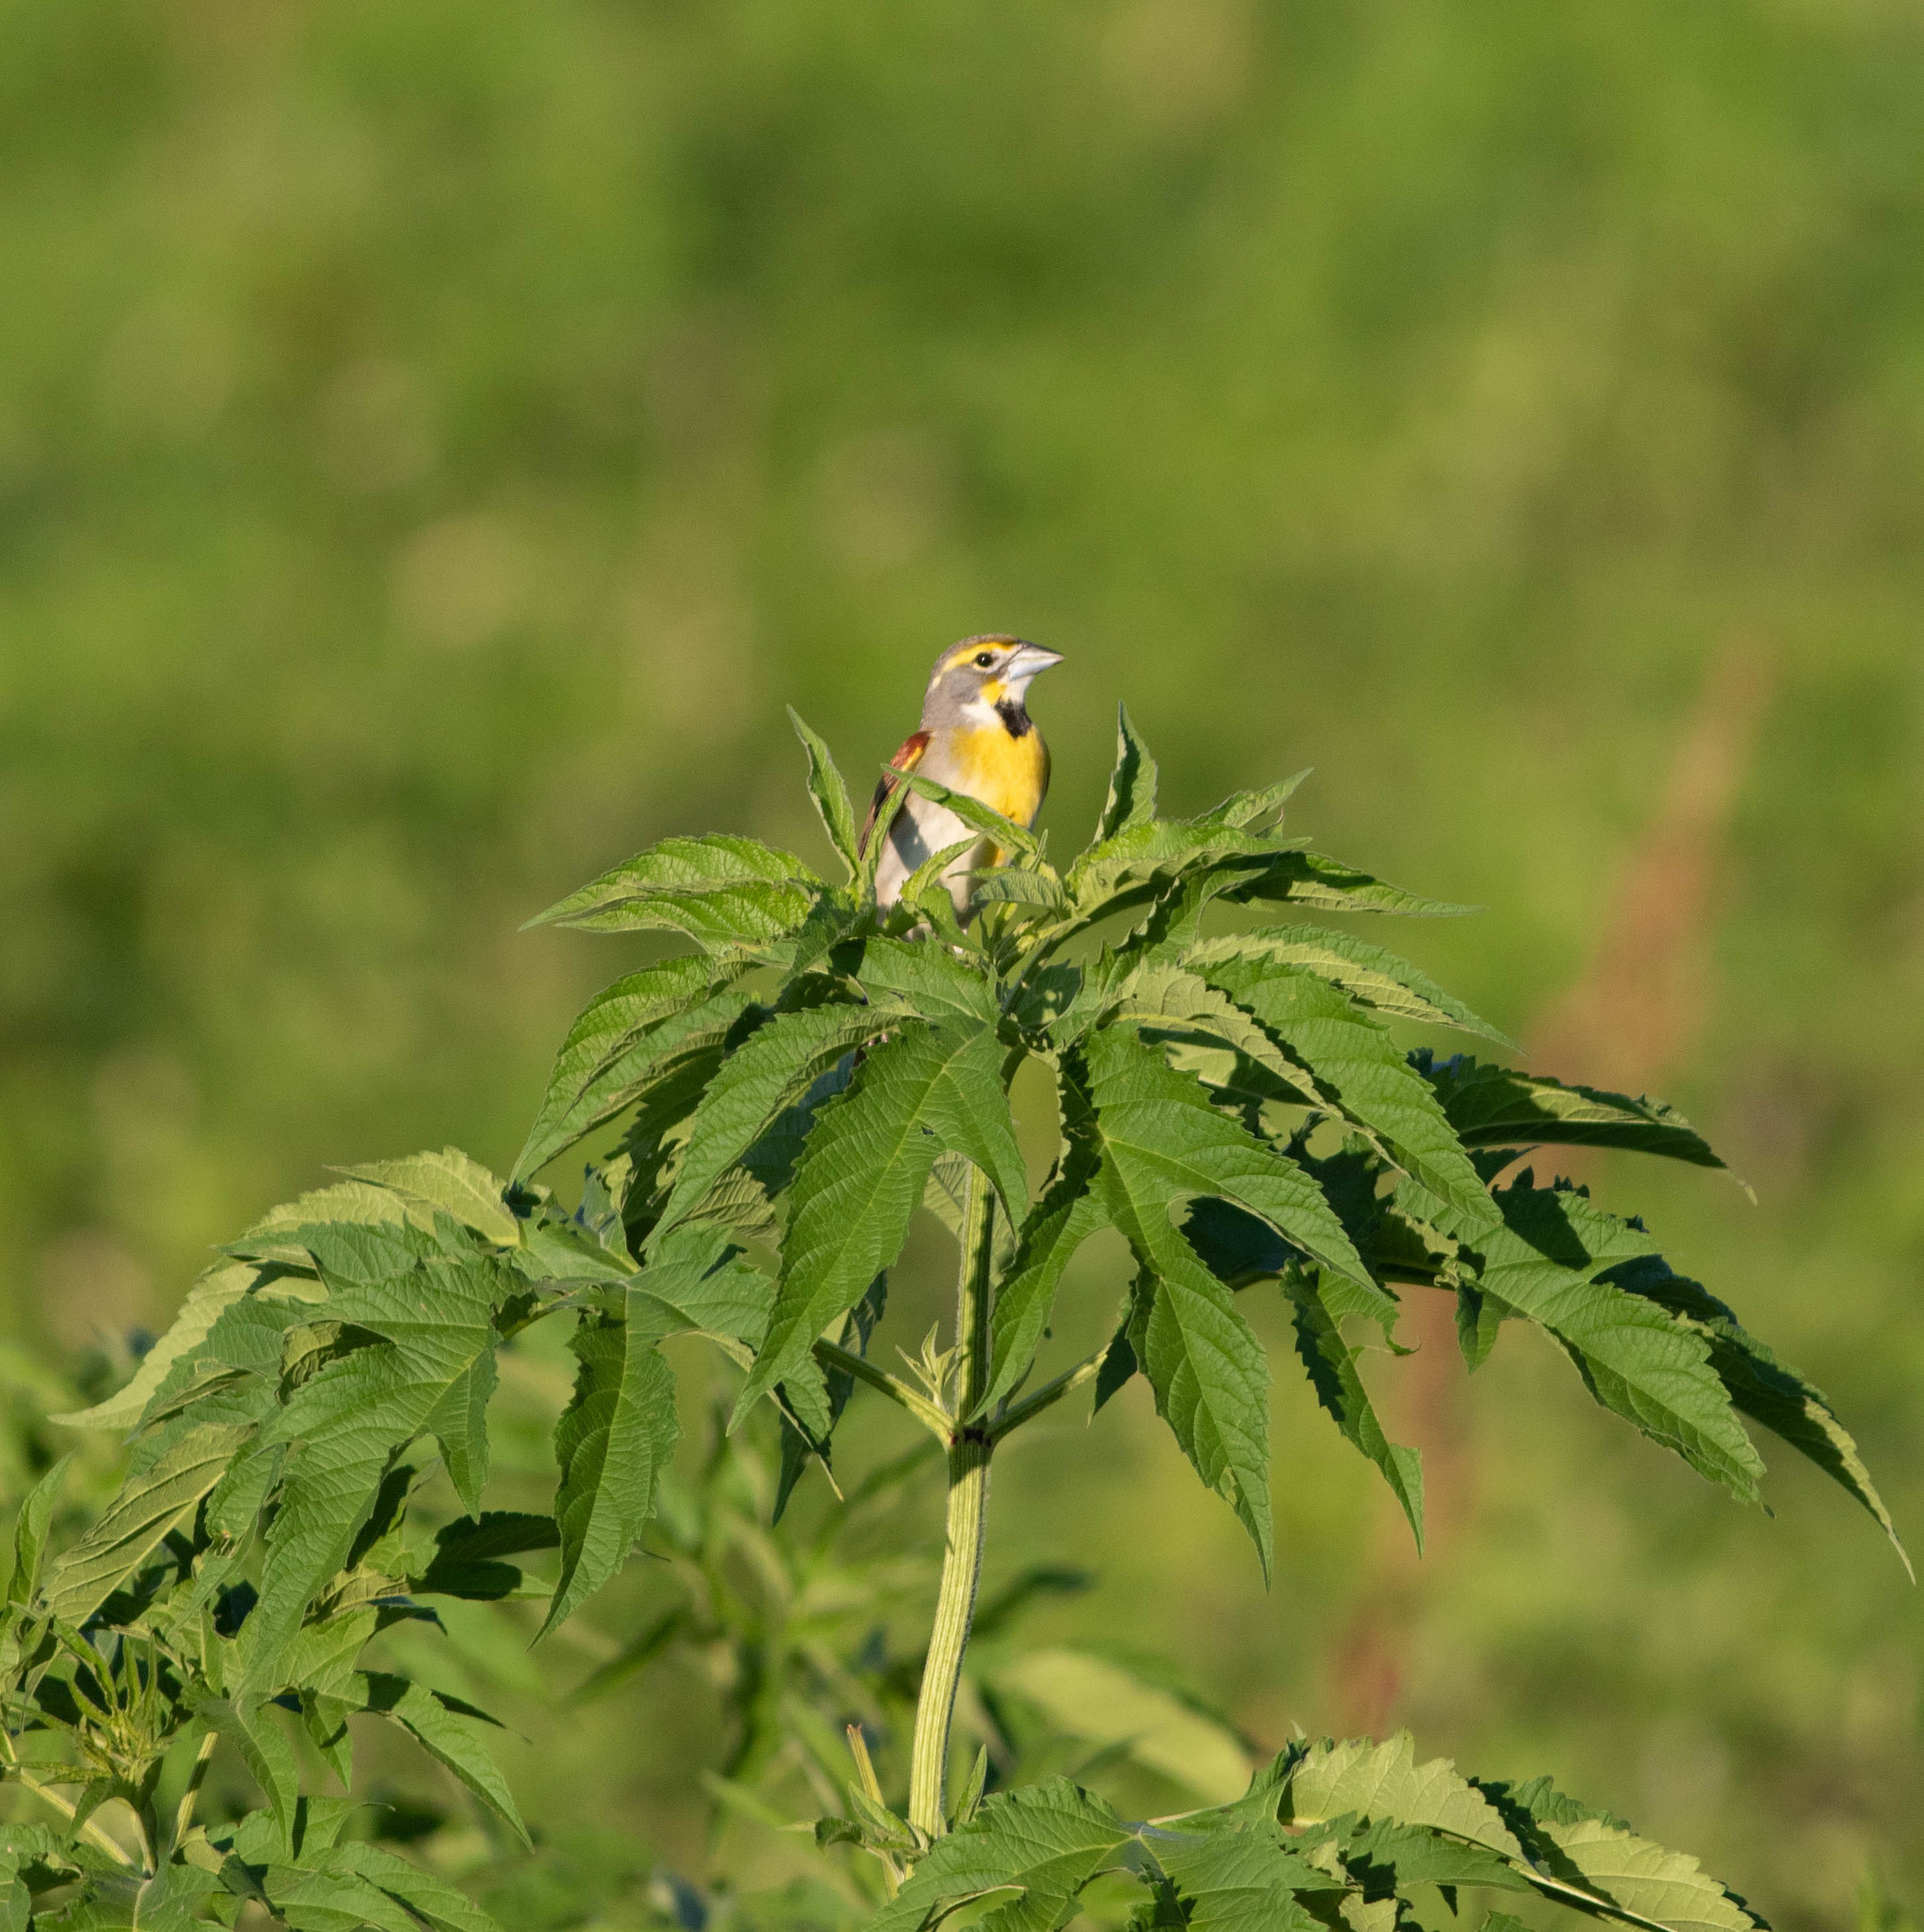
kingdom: Animalia
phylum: Chordata
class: Aves
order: Passeriformes
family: Cardinalidae
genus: Spiza
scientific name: Spiza americana
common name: Dickcissel
